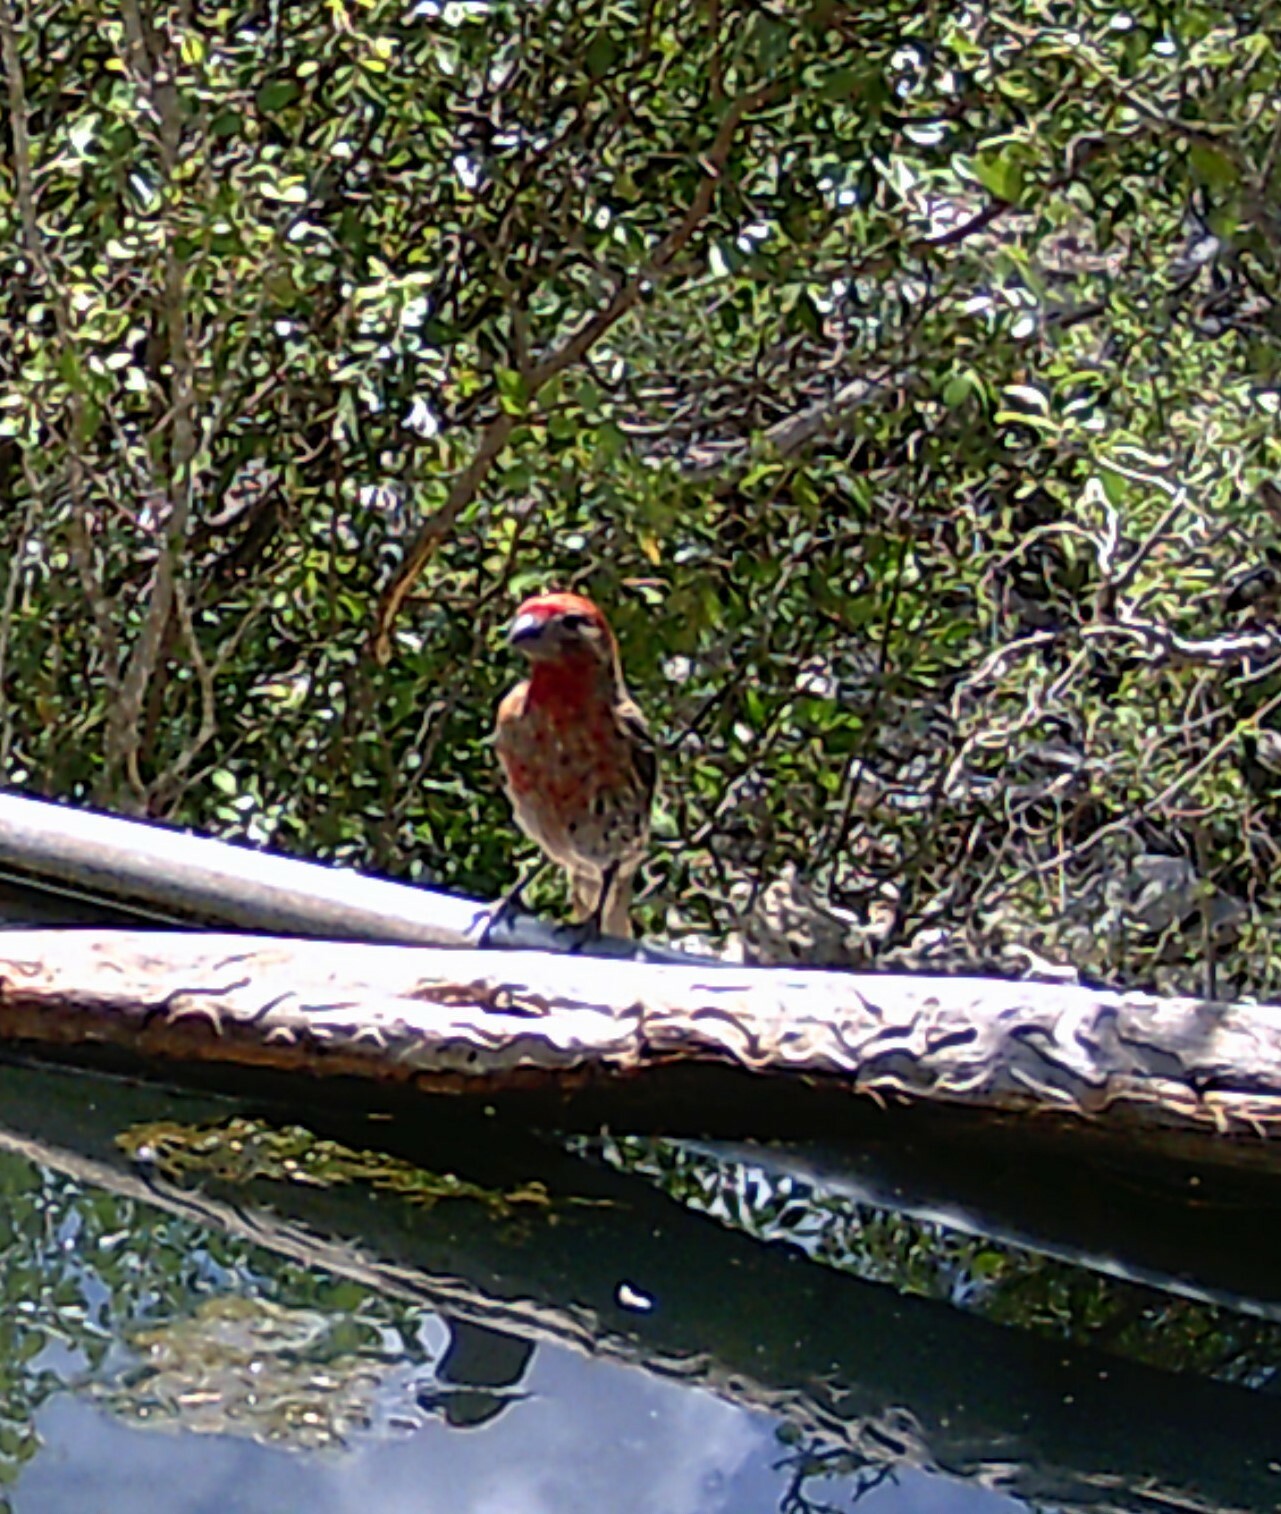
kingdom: Animalia
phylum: Chordata
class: Aves
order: Passeriformes
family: Fringillidae
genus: Haemorhous
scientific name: Haemorhous mexicanus
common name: House finch
